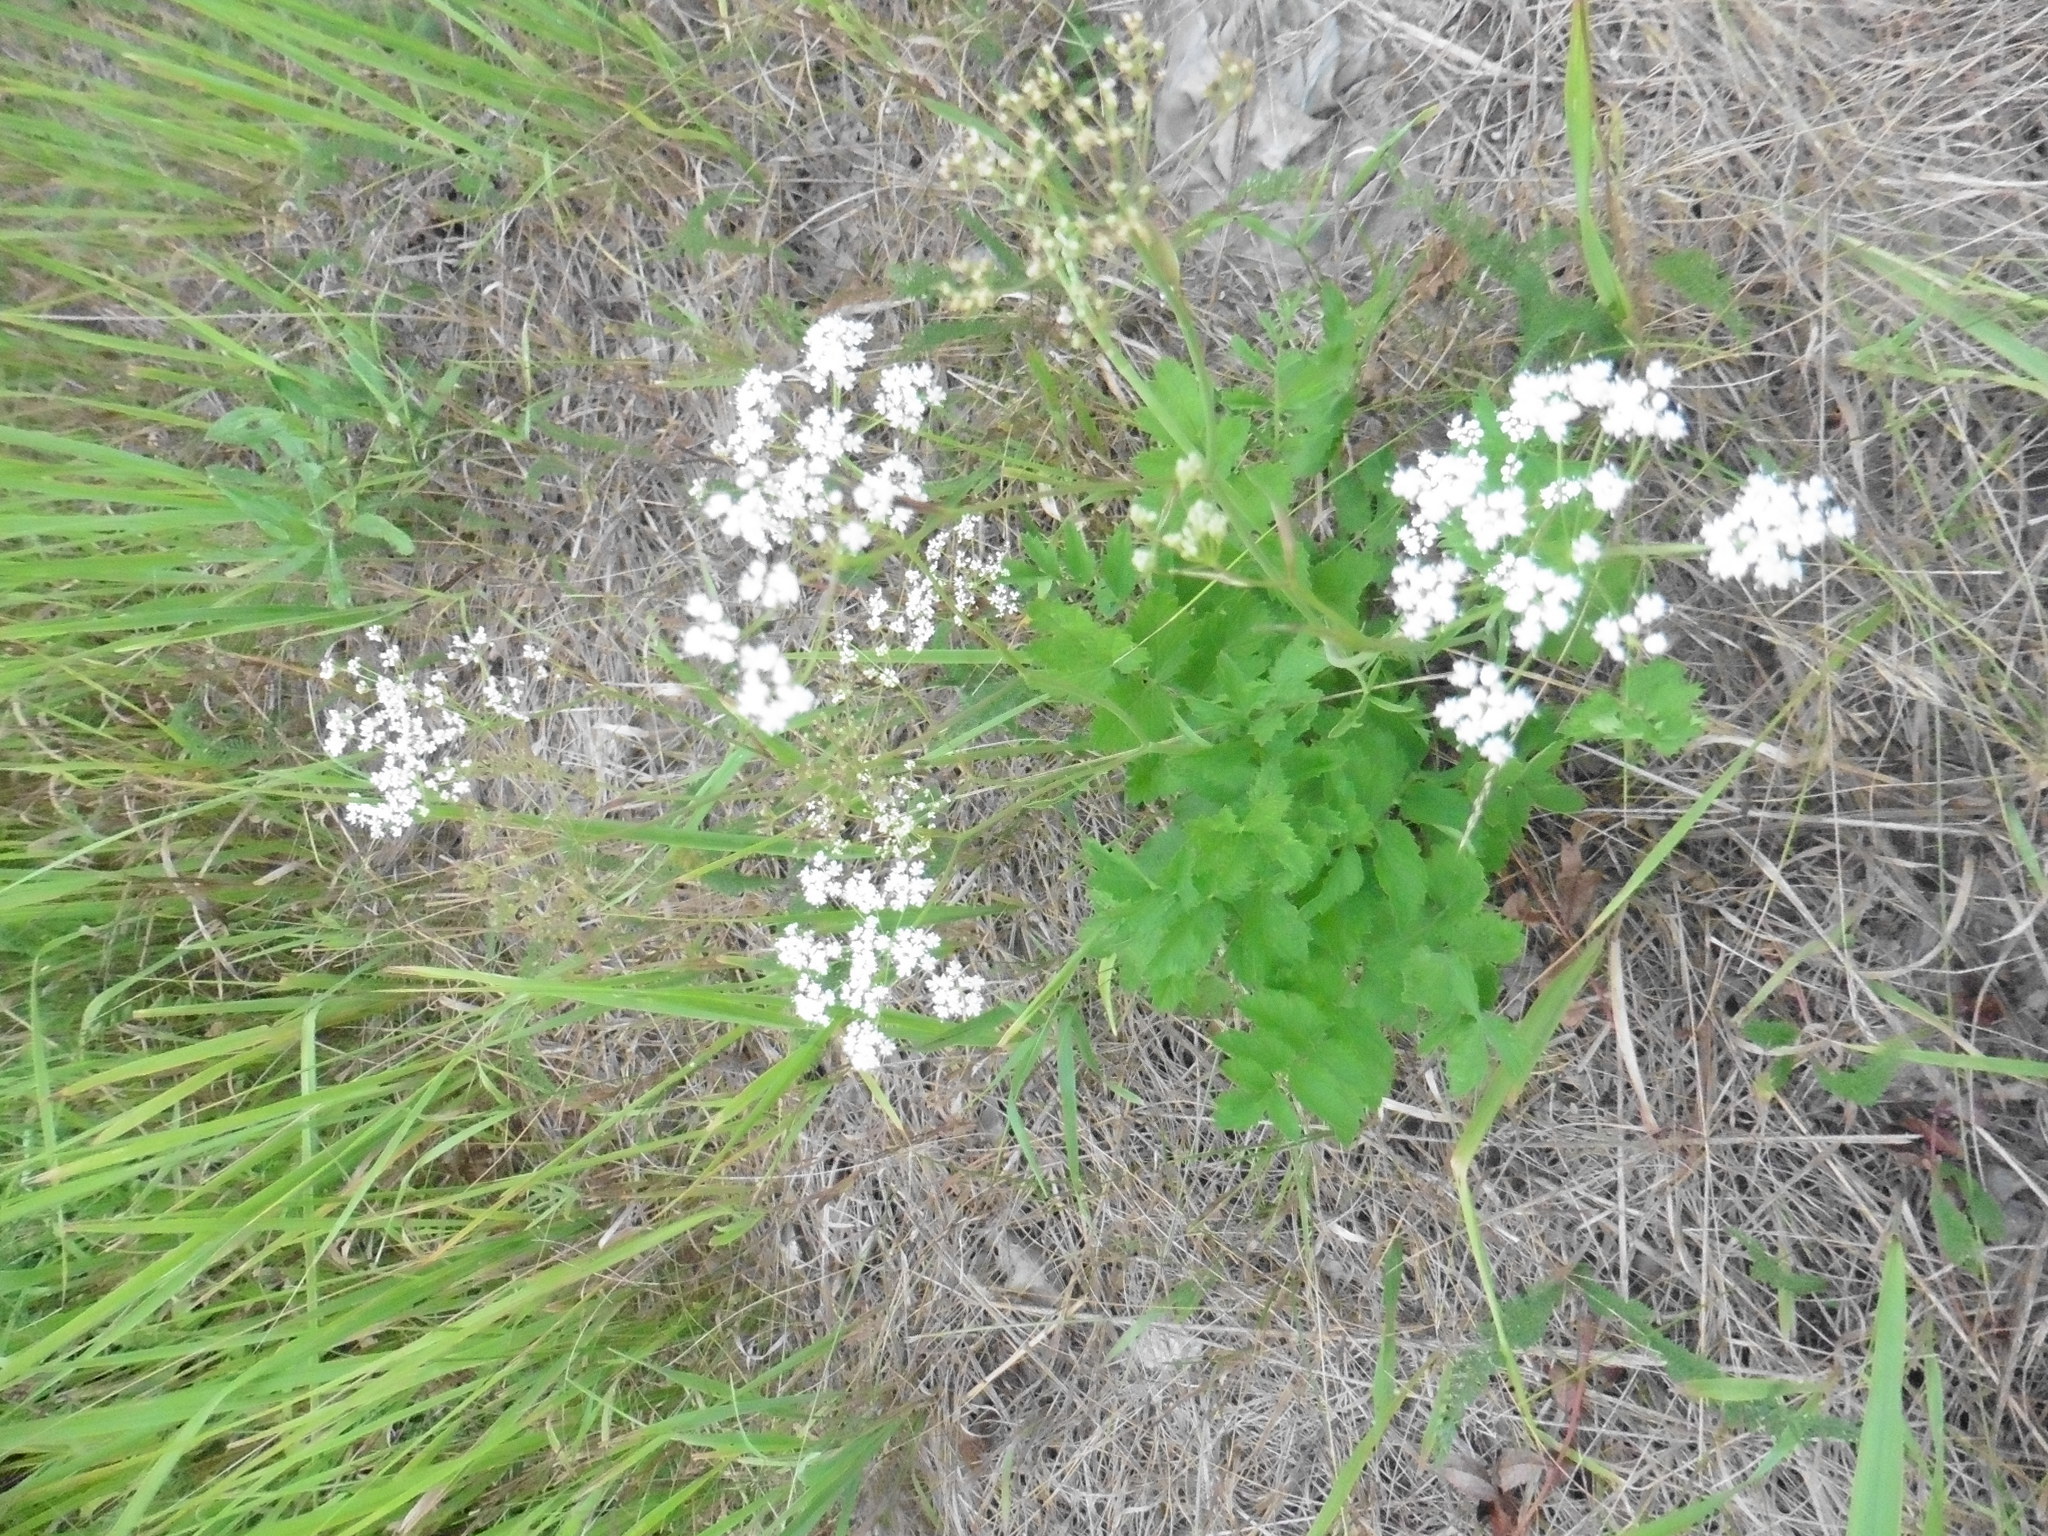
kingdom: Plantae
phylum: Tracheophyta
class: Magnoliopsida
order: Apiales
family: Apiaceae
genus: Pimpinella
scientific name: Pimpinella saxifraga
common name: Burnet-saxifrage
